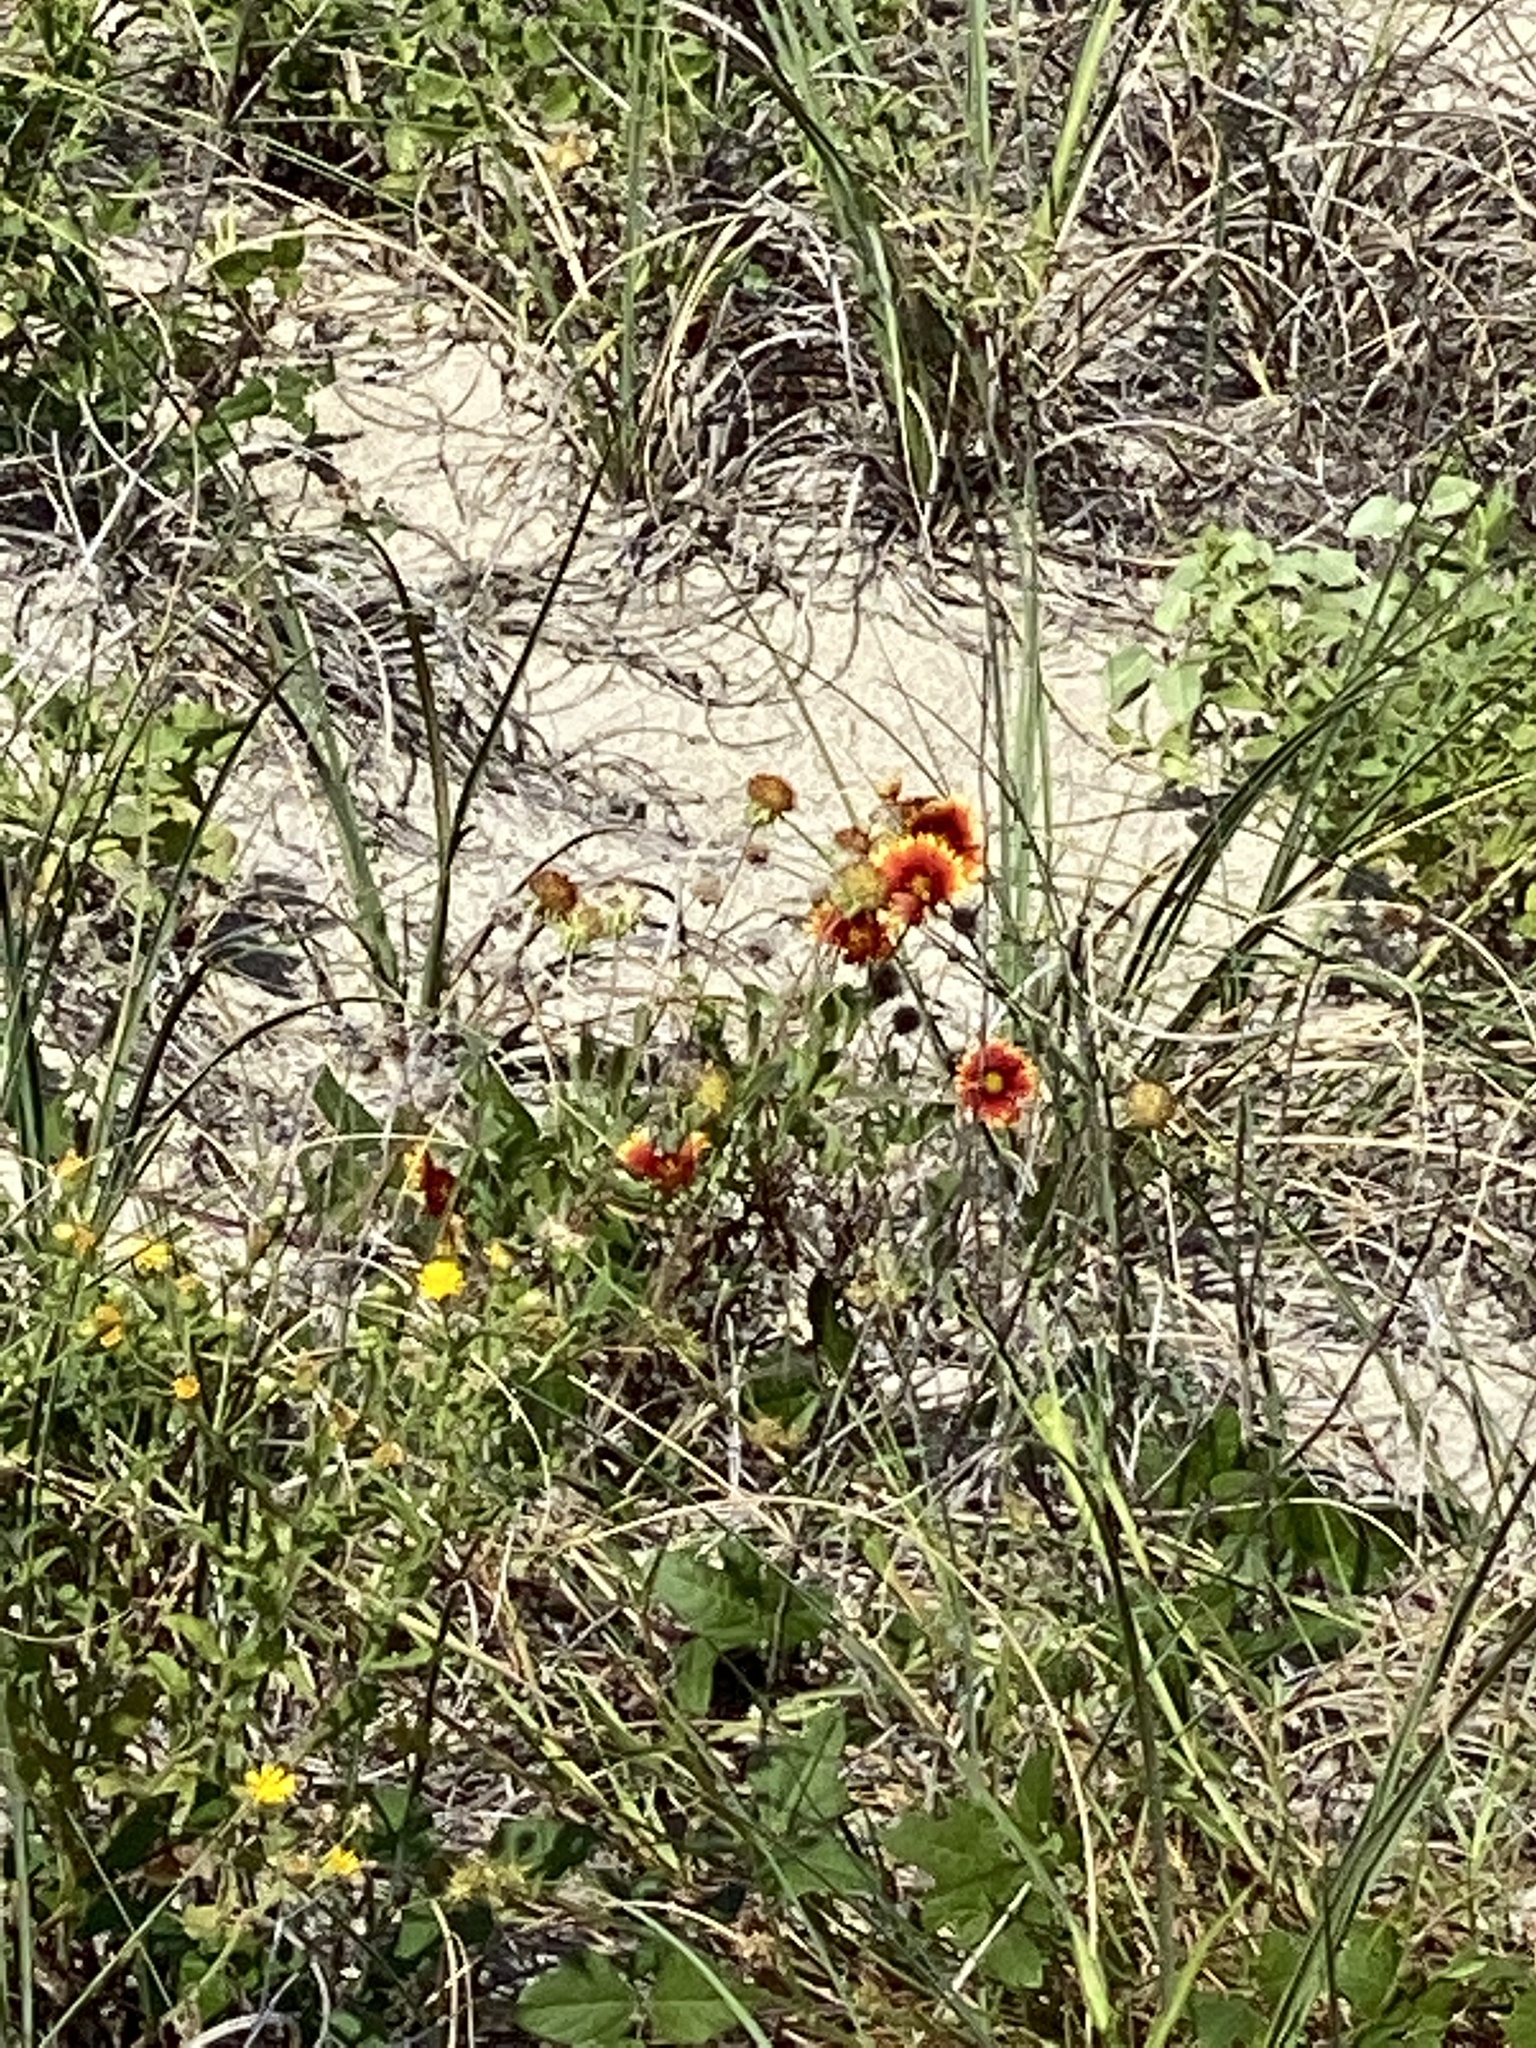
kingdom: Plantae
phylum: Tracheophyta
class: Magnoliopsida
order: Asterales
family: Asteraceae
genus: Gaillardia
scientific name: Gaillardia pulchella
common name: Firewheel
